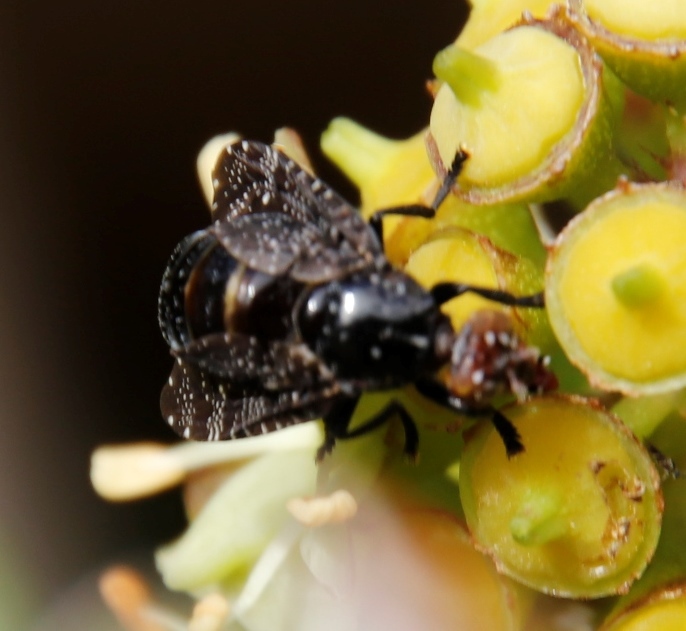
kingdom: Animalia
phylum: Arthropoda
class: Insecta
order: Diptera
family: Platystomatidae
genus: Palpomya
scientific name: Palpomya asphaltina
